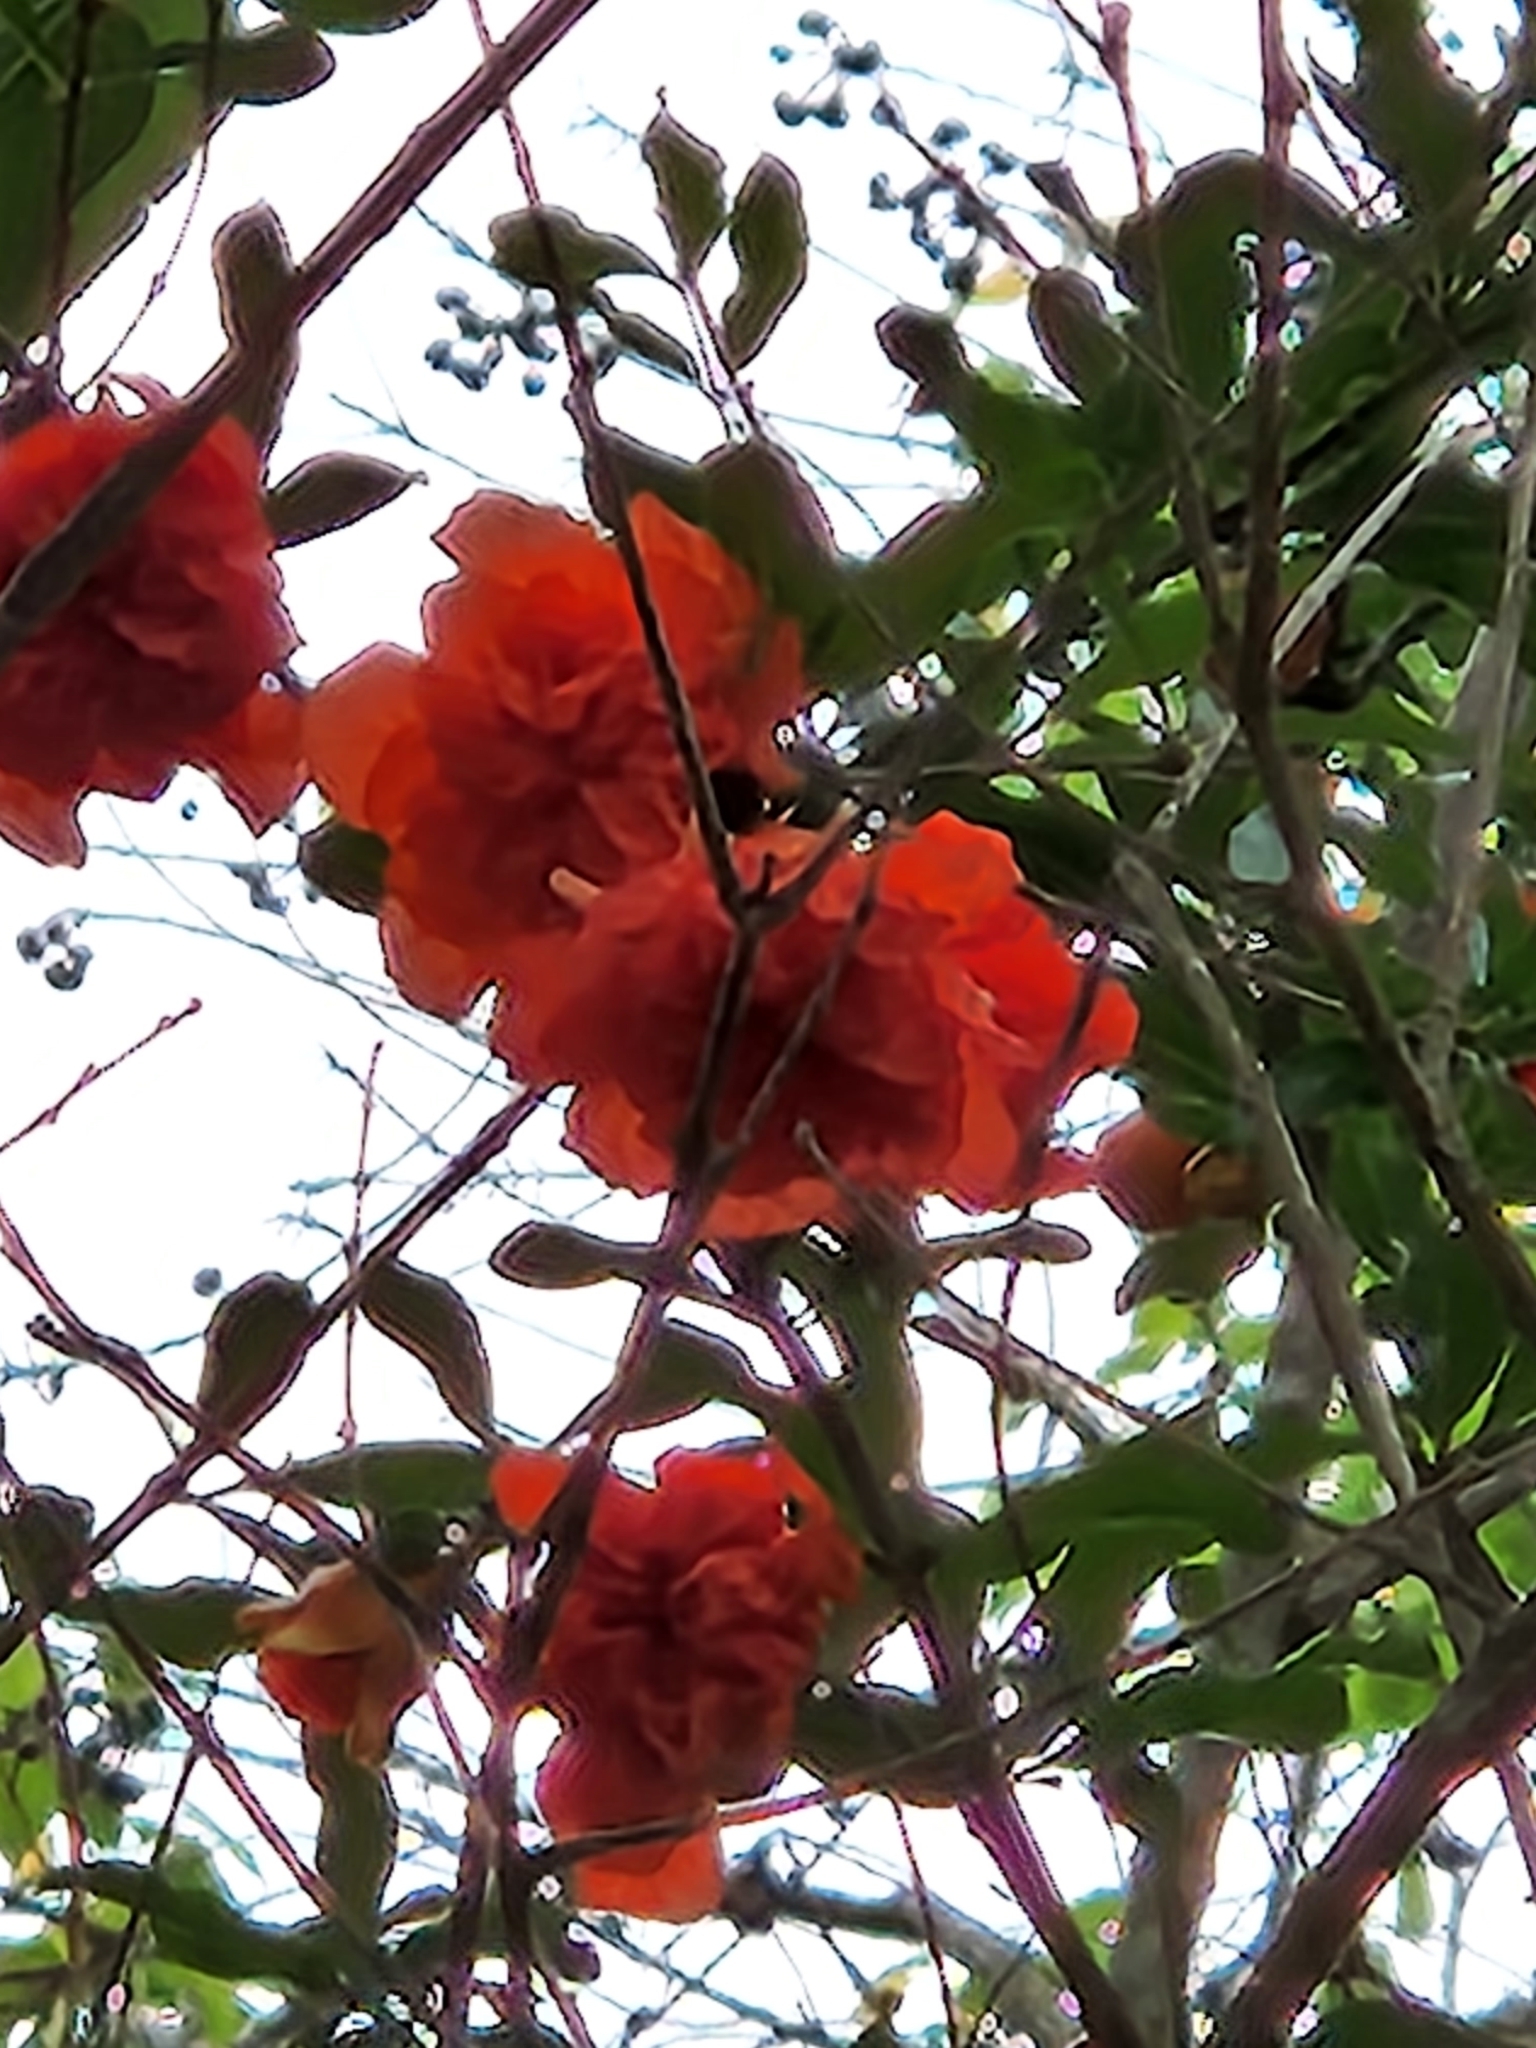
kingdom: Plantae
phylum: Tracheophyta
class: Magnoliopsida
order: Myrtales
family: Lythraceae
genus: Punica
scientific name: Punica granatum
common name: Pomegranate
